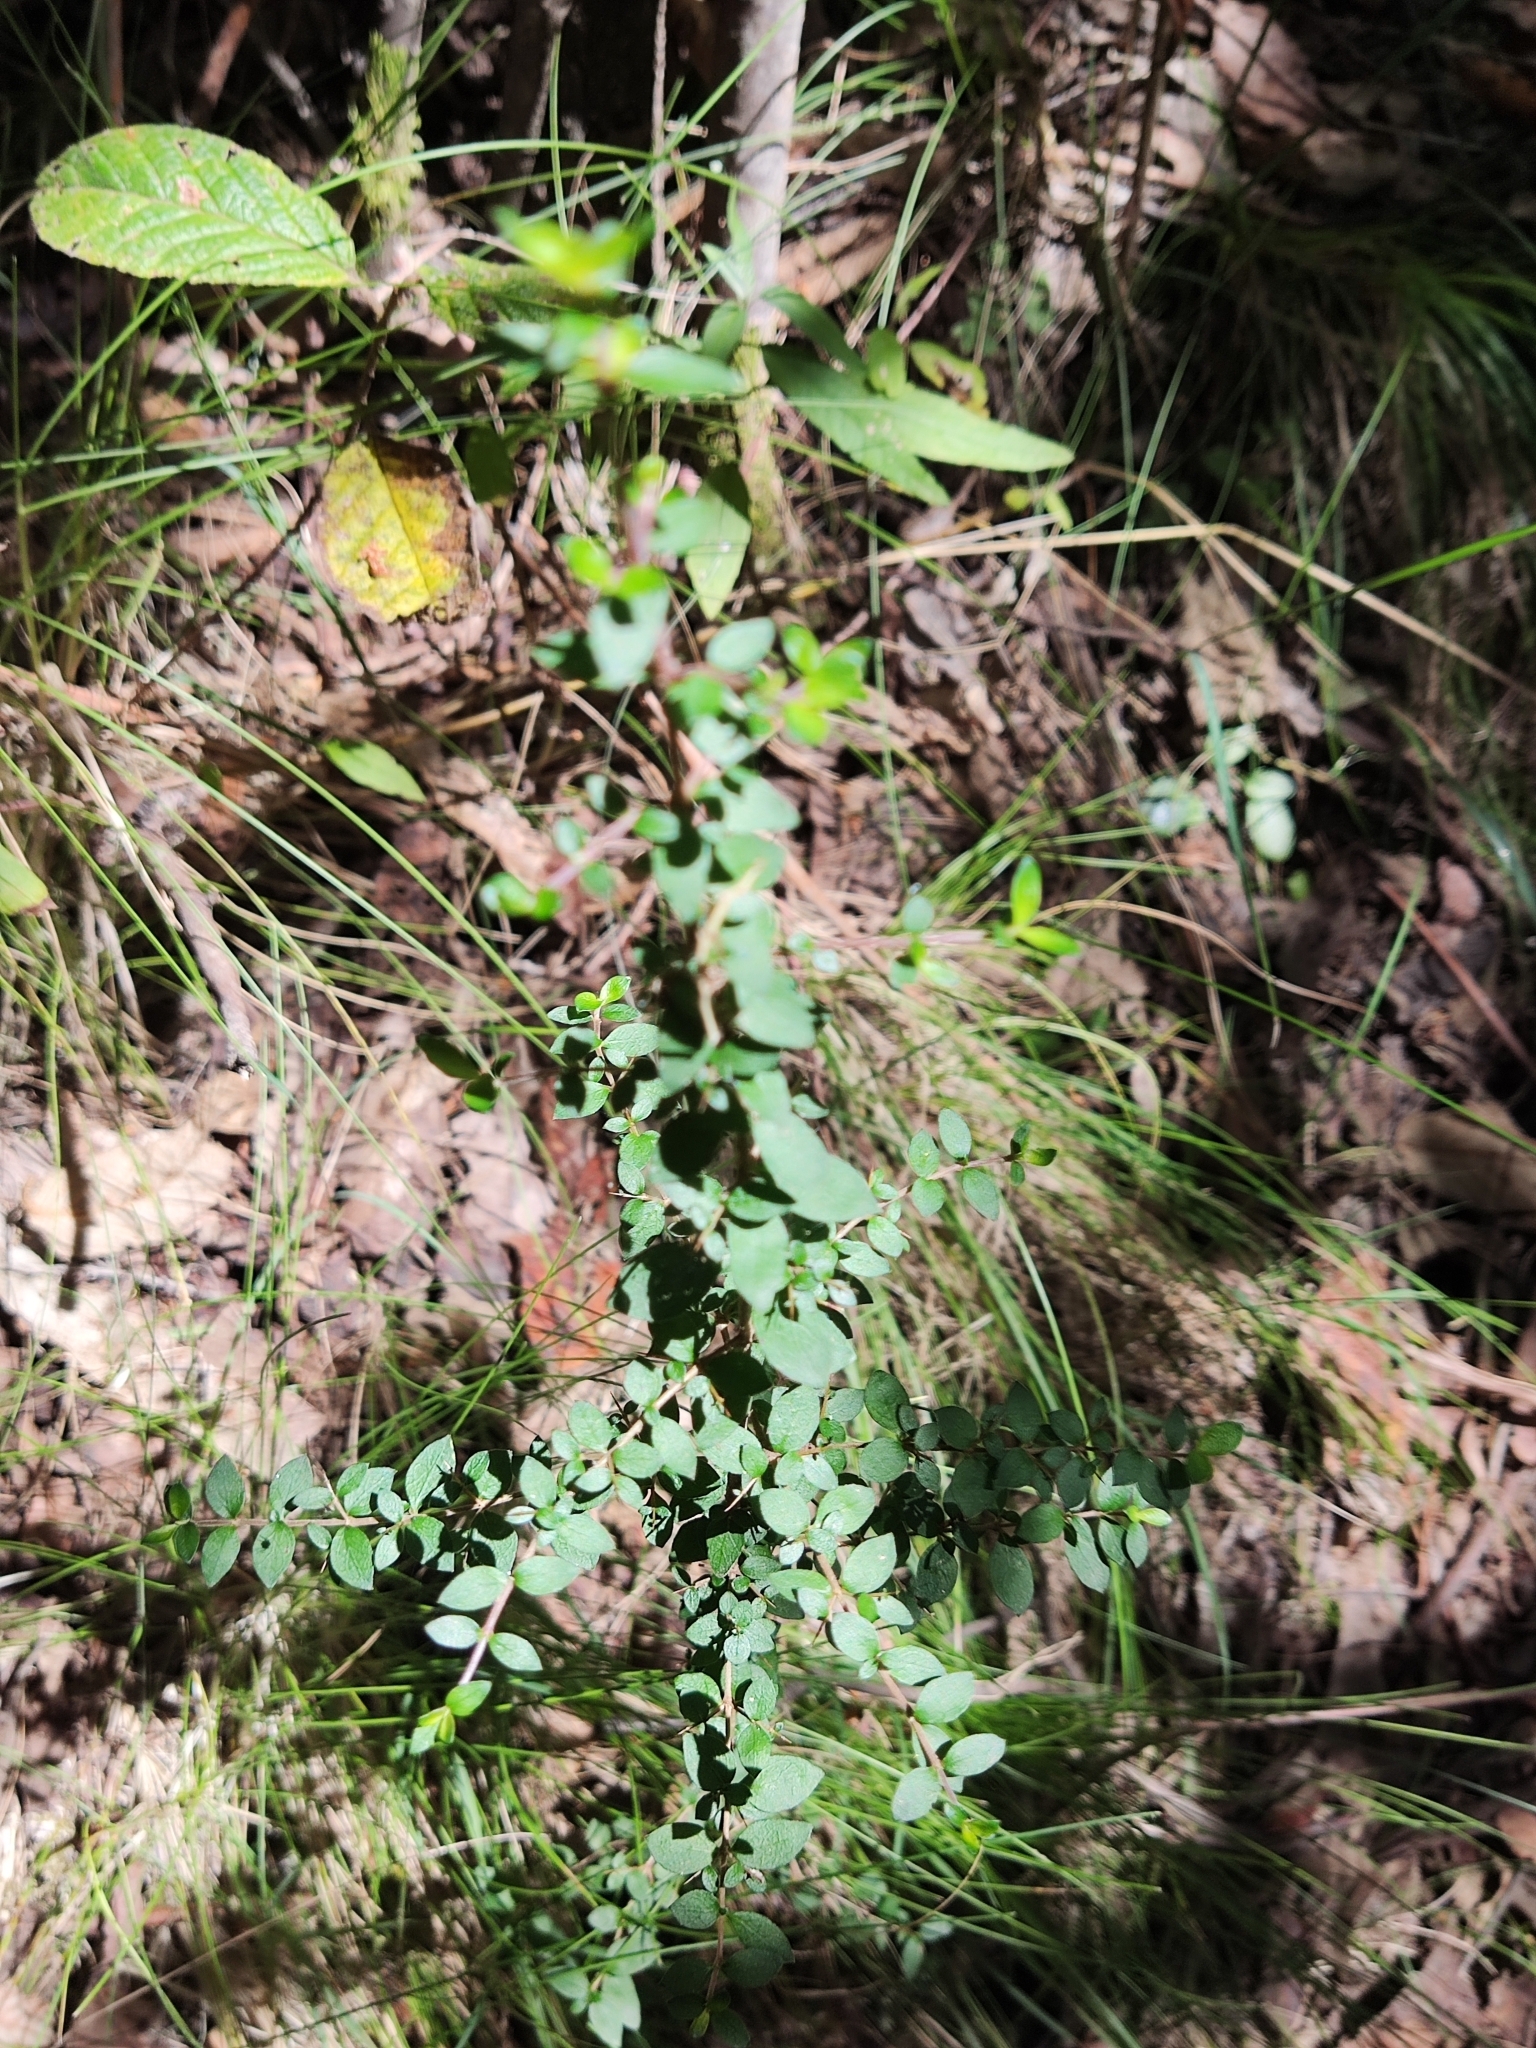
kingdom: Plantae
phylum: Tracheophyta
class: Magnoliopsida
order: Gentianales
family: Rubiaceae
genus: Coprosma
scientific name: Coprosma quadrifida
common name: Prickly currantbush
